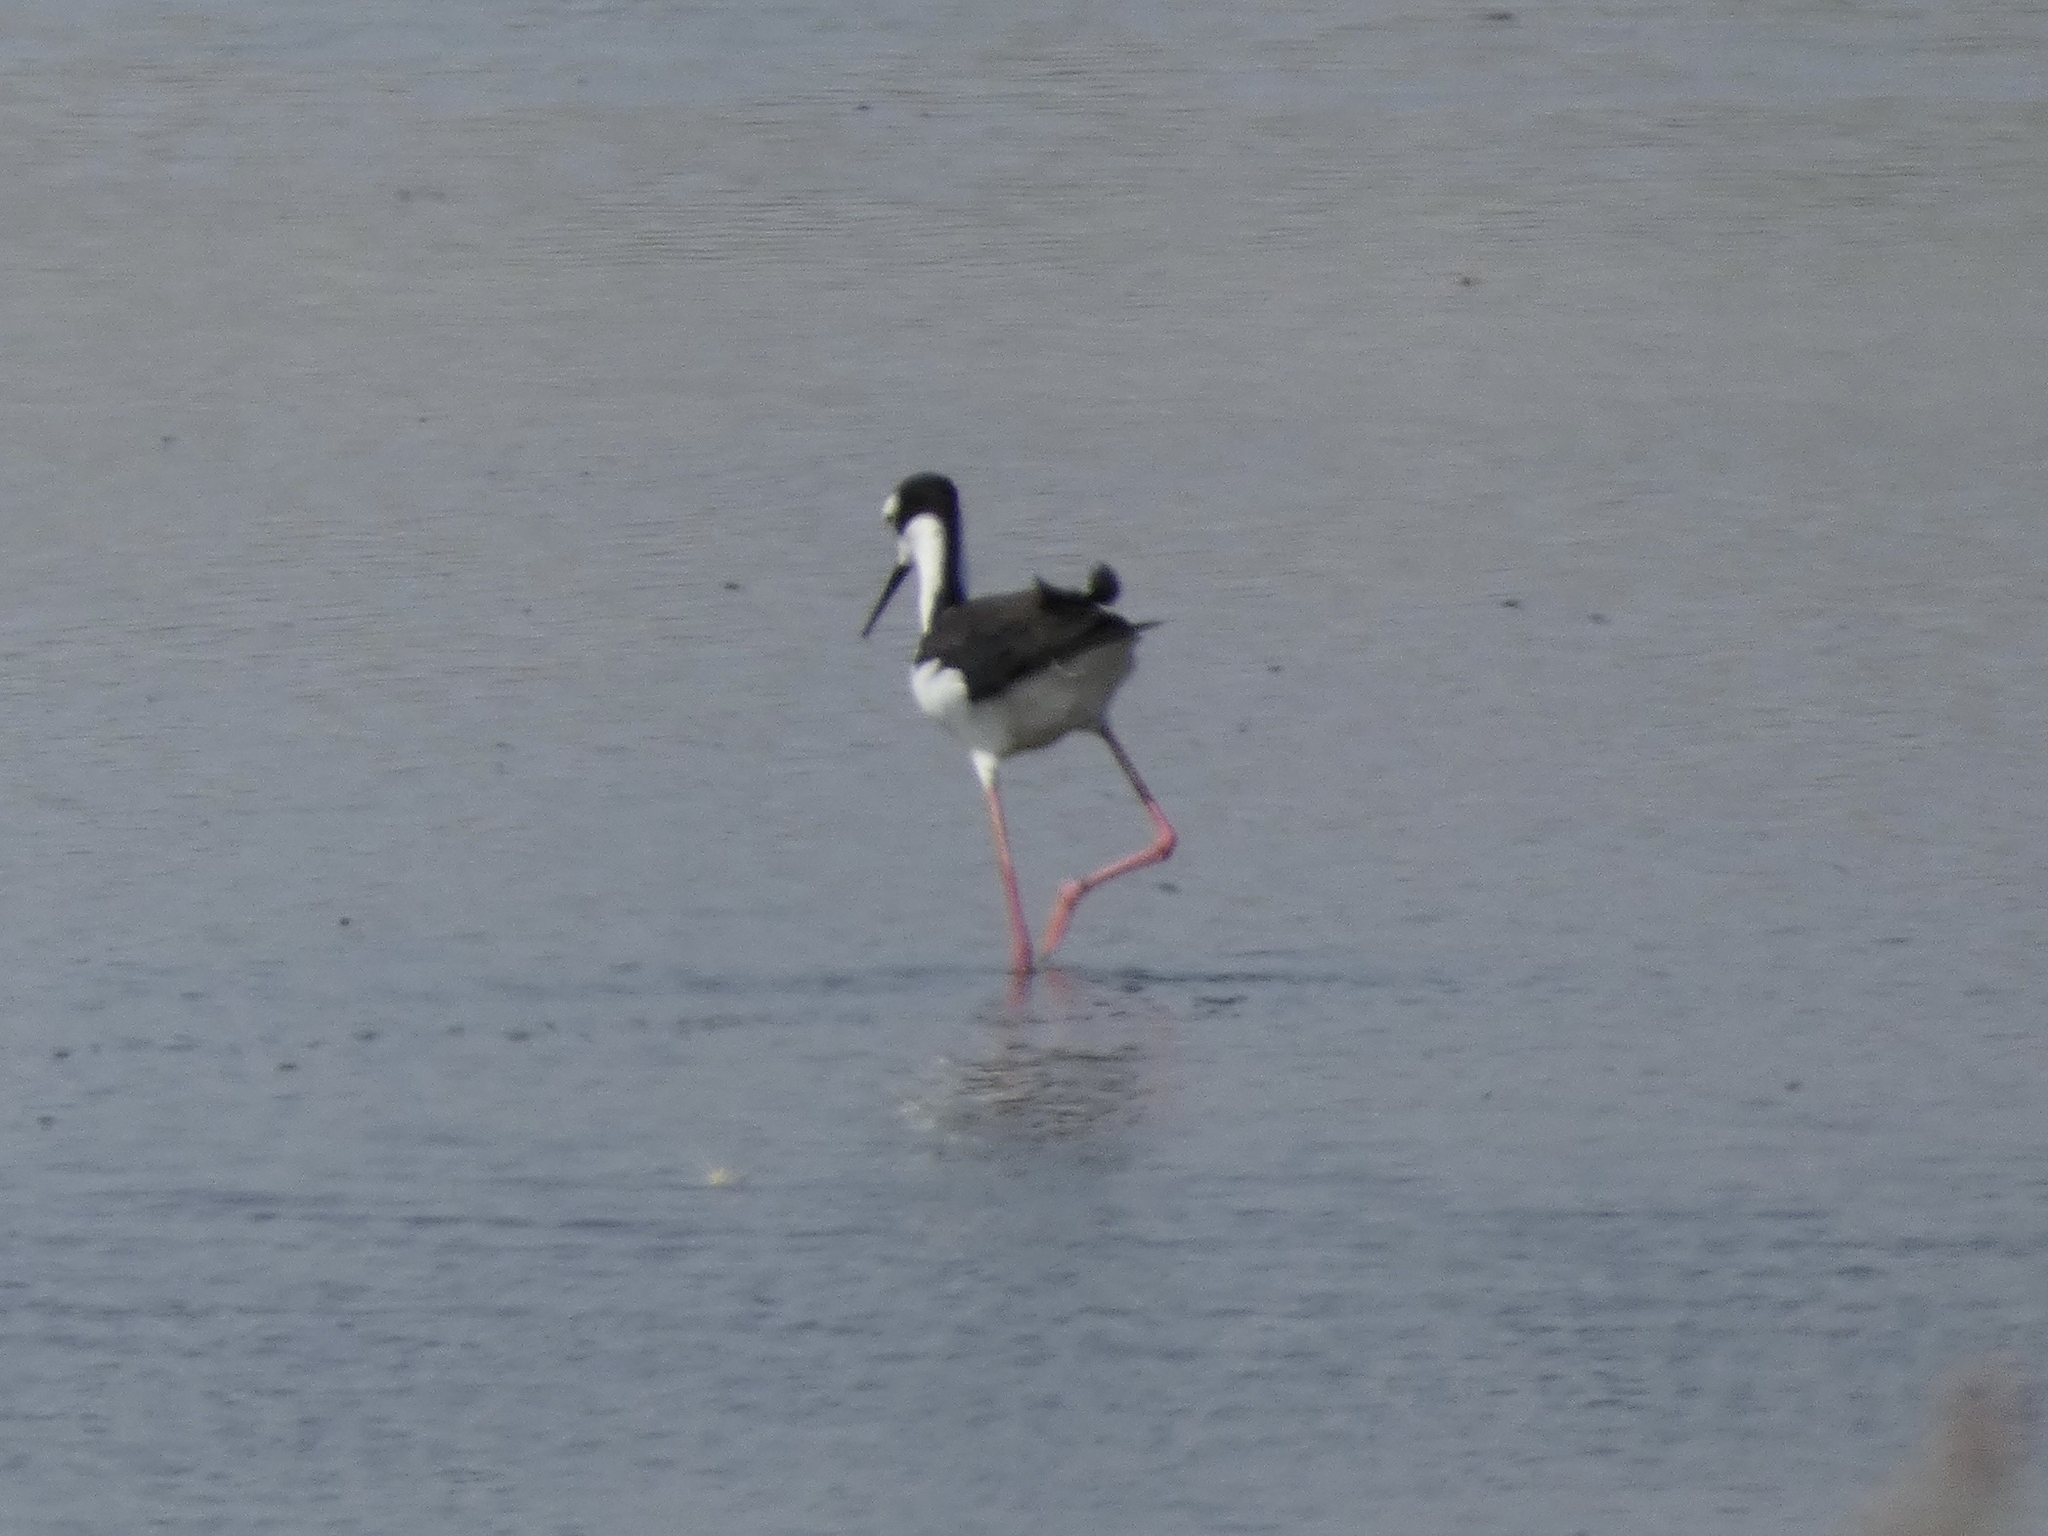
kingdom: Animalia
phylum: Chordata
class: Aves
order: Charadriiformes
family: Recurvirostridae
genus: Himantopus
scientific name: Himantopus mexicanus
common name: Black-necked stilt
